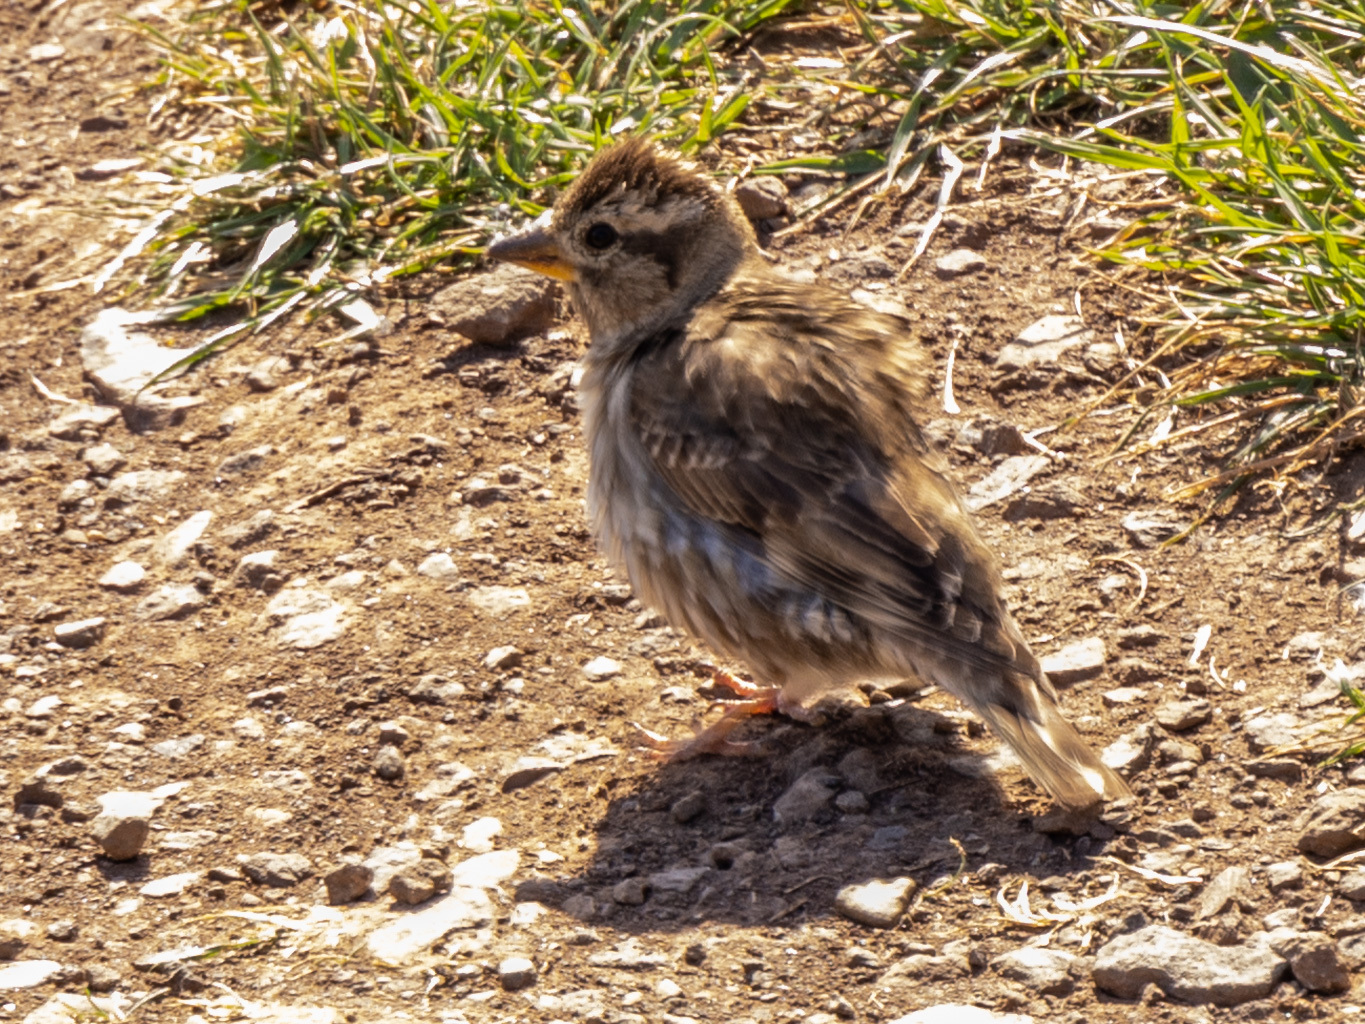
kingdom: Animalia
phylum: Chordata
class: Aves
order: Passeriformes
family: Passeridae
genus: Petronia
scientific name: Petronia petronia
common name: Rock sparrow
